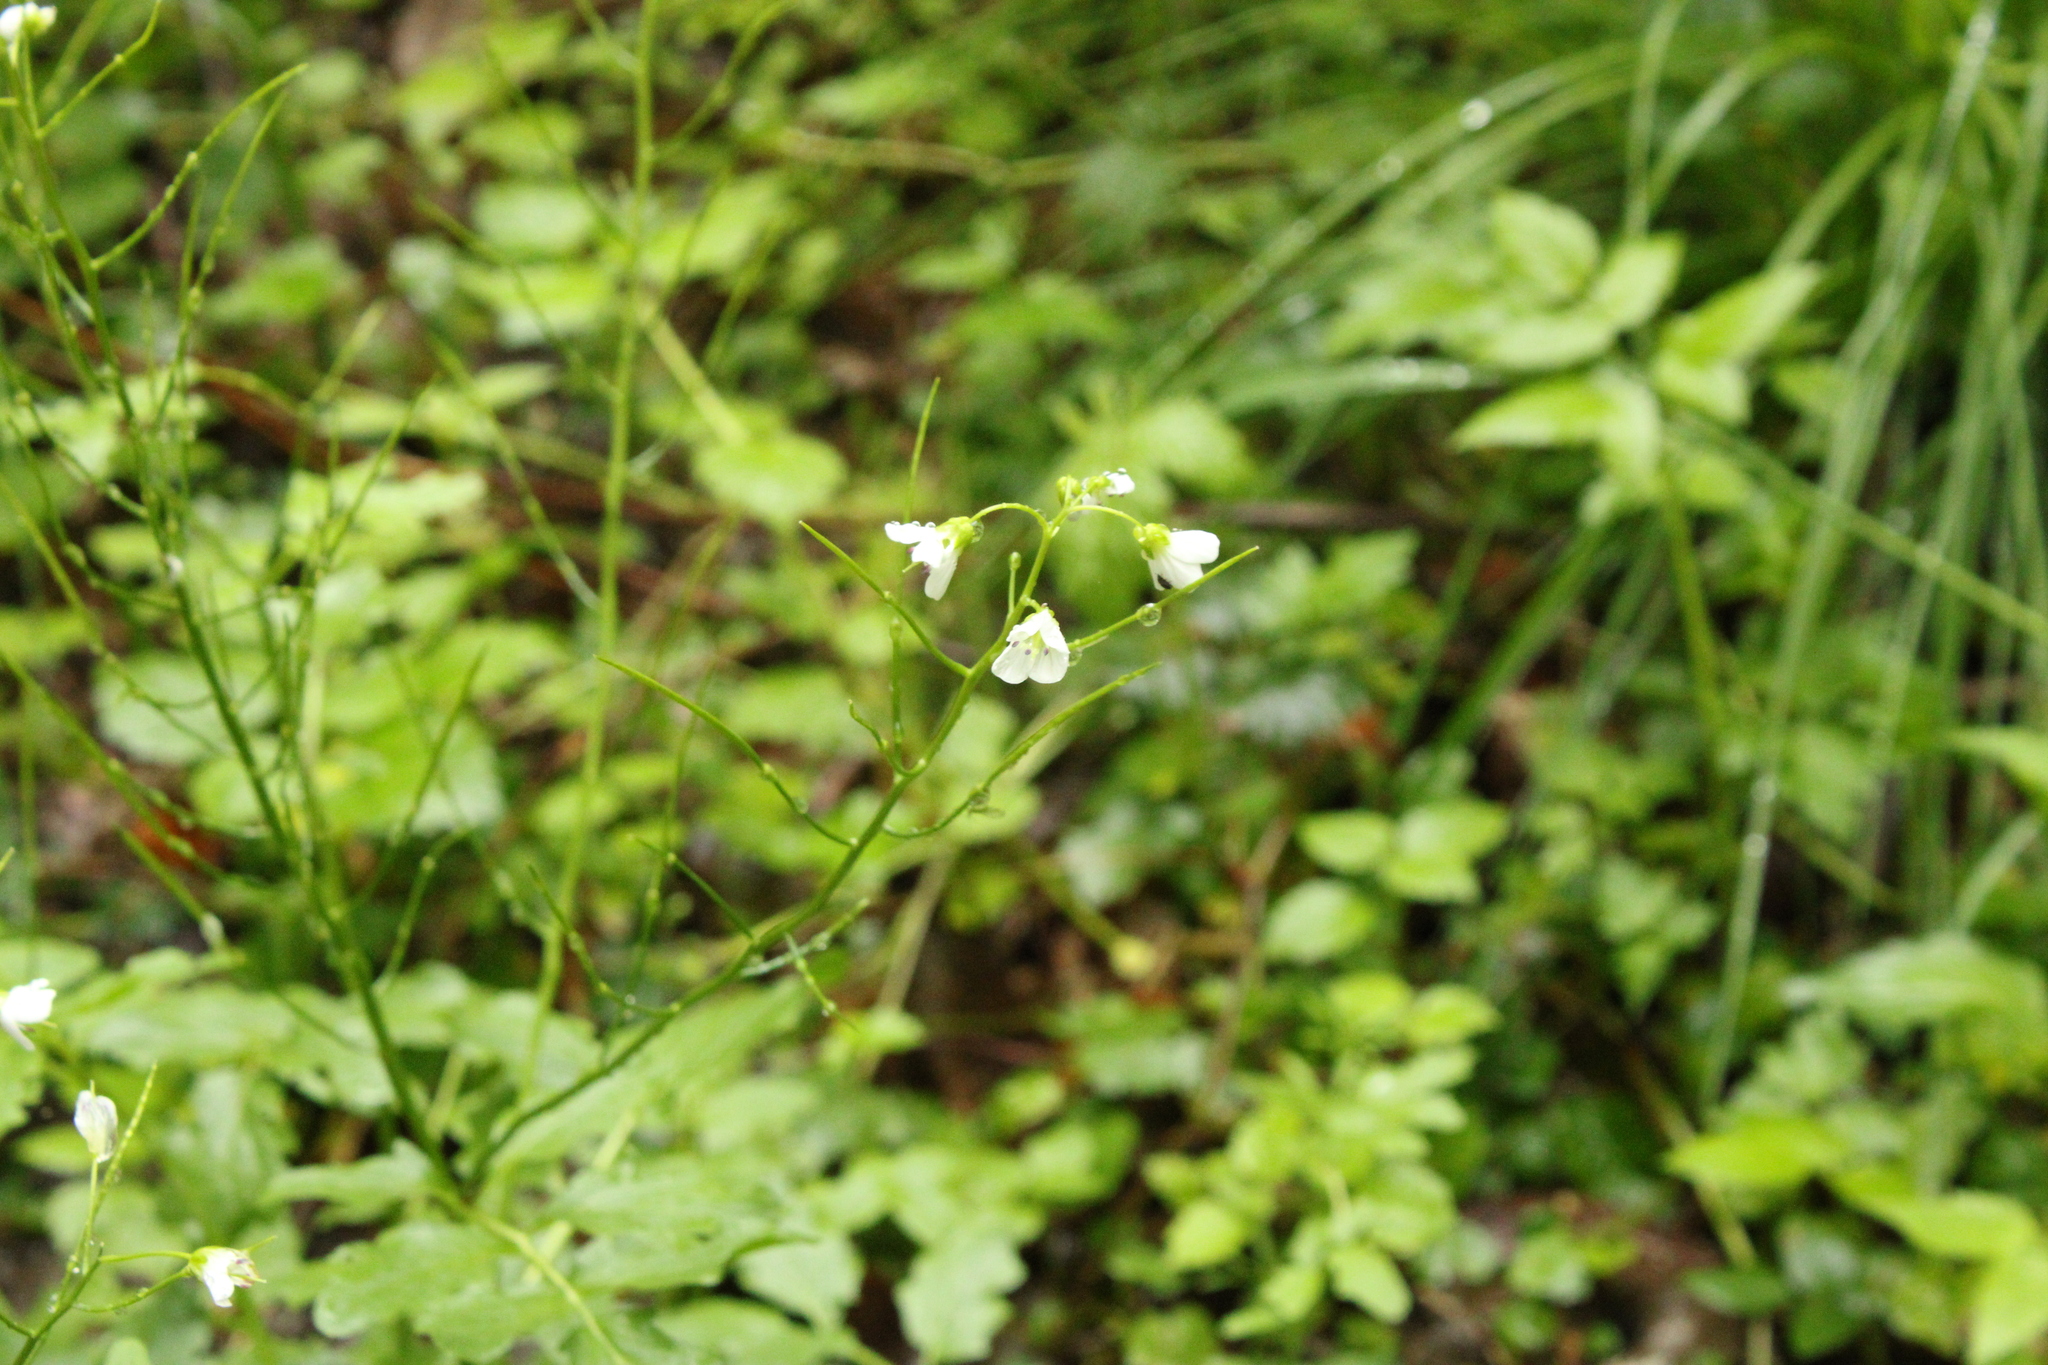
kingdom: Plantae
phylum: Tracheophyta
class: Magnoliopsida
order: Brassicales
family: Brassicaceae
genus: Cardamine
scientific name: Cardamine amara
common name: Large bitter-cress
